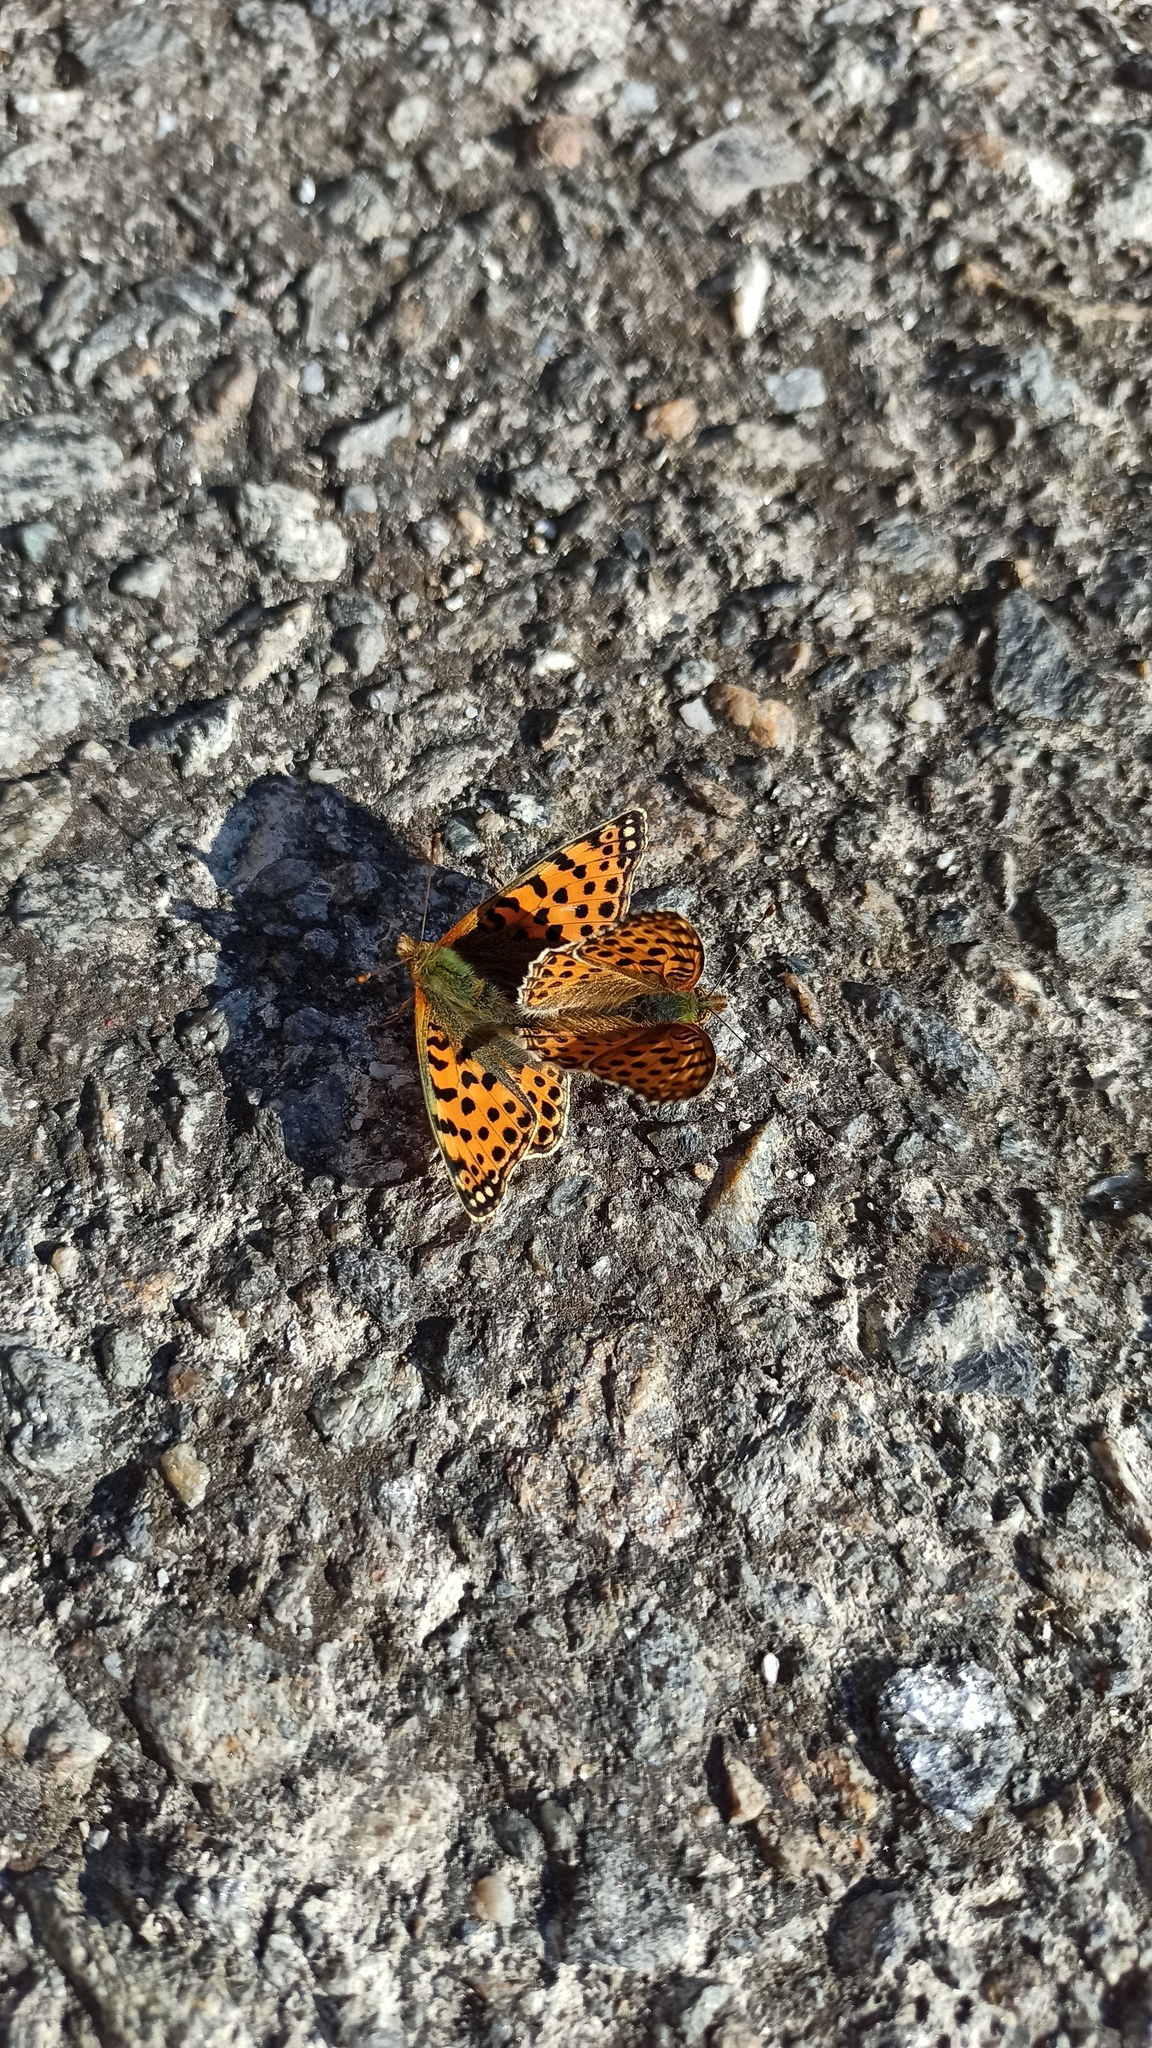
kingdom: Animalia
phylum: Arthropoda
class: Insecta
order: Lepidoptera
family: Nymphalidae
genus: Issoria
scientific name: Issoria lathonia
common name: Queen of spain fritillary
